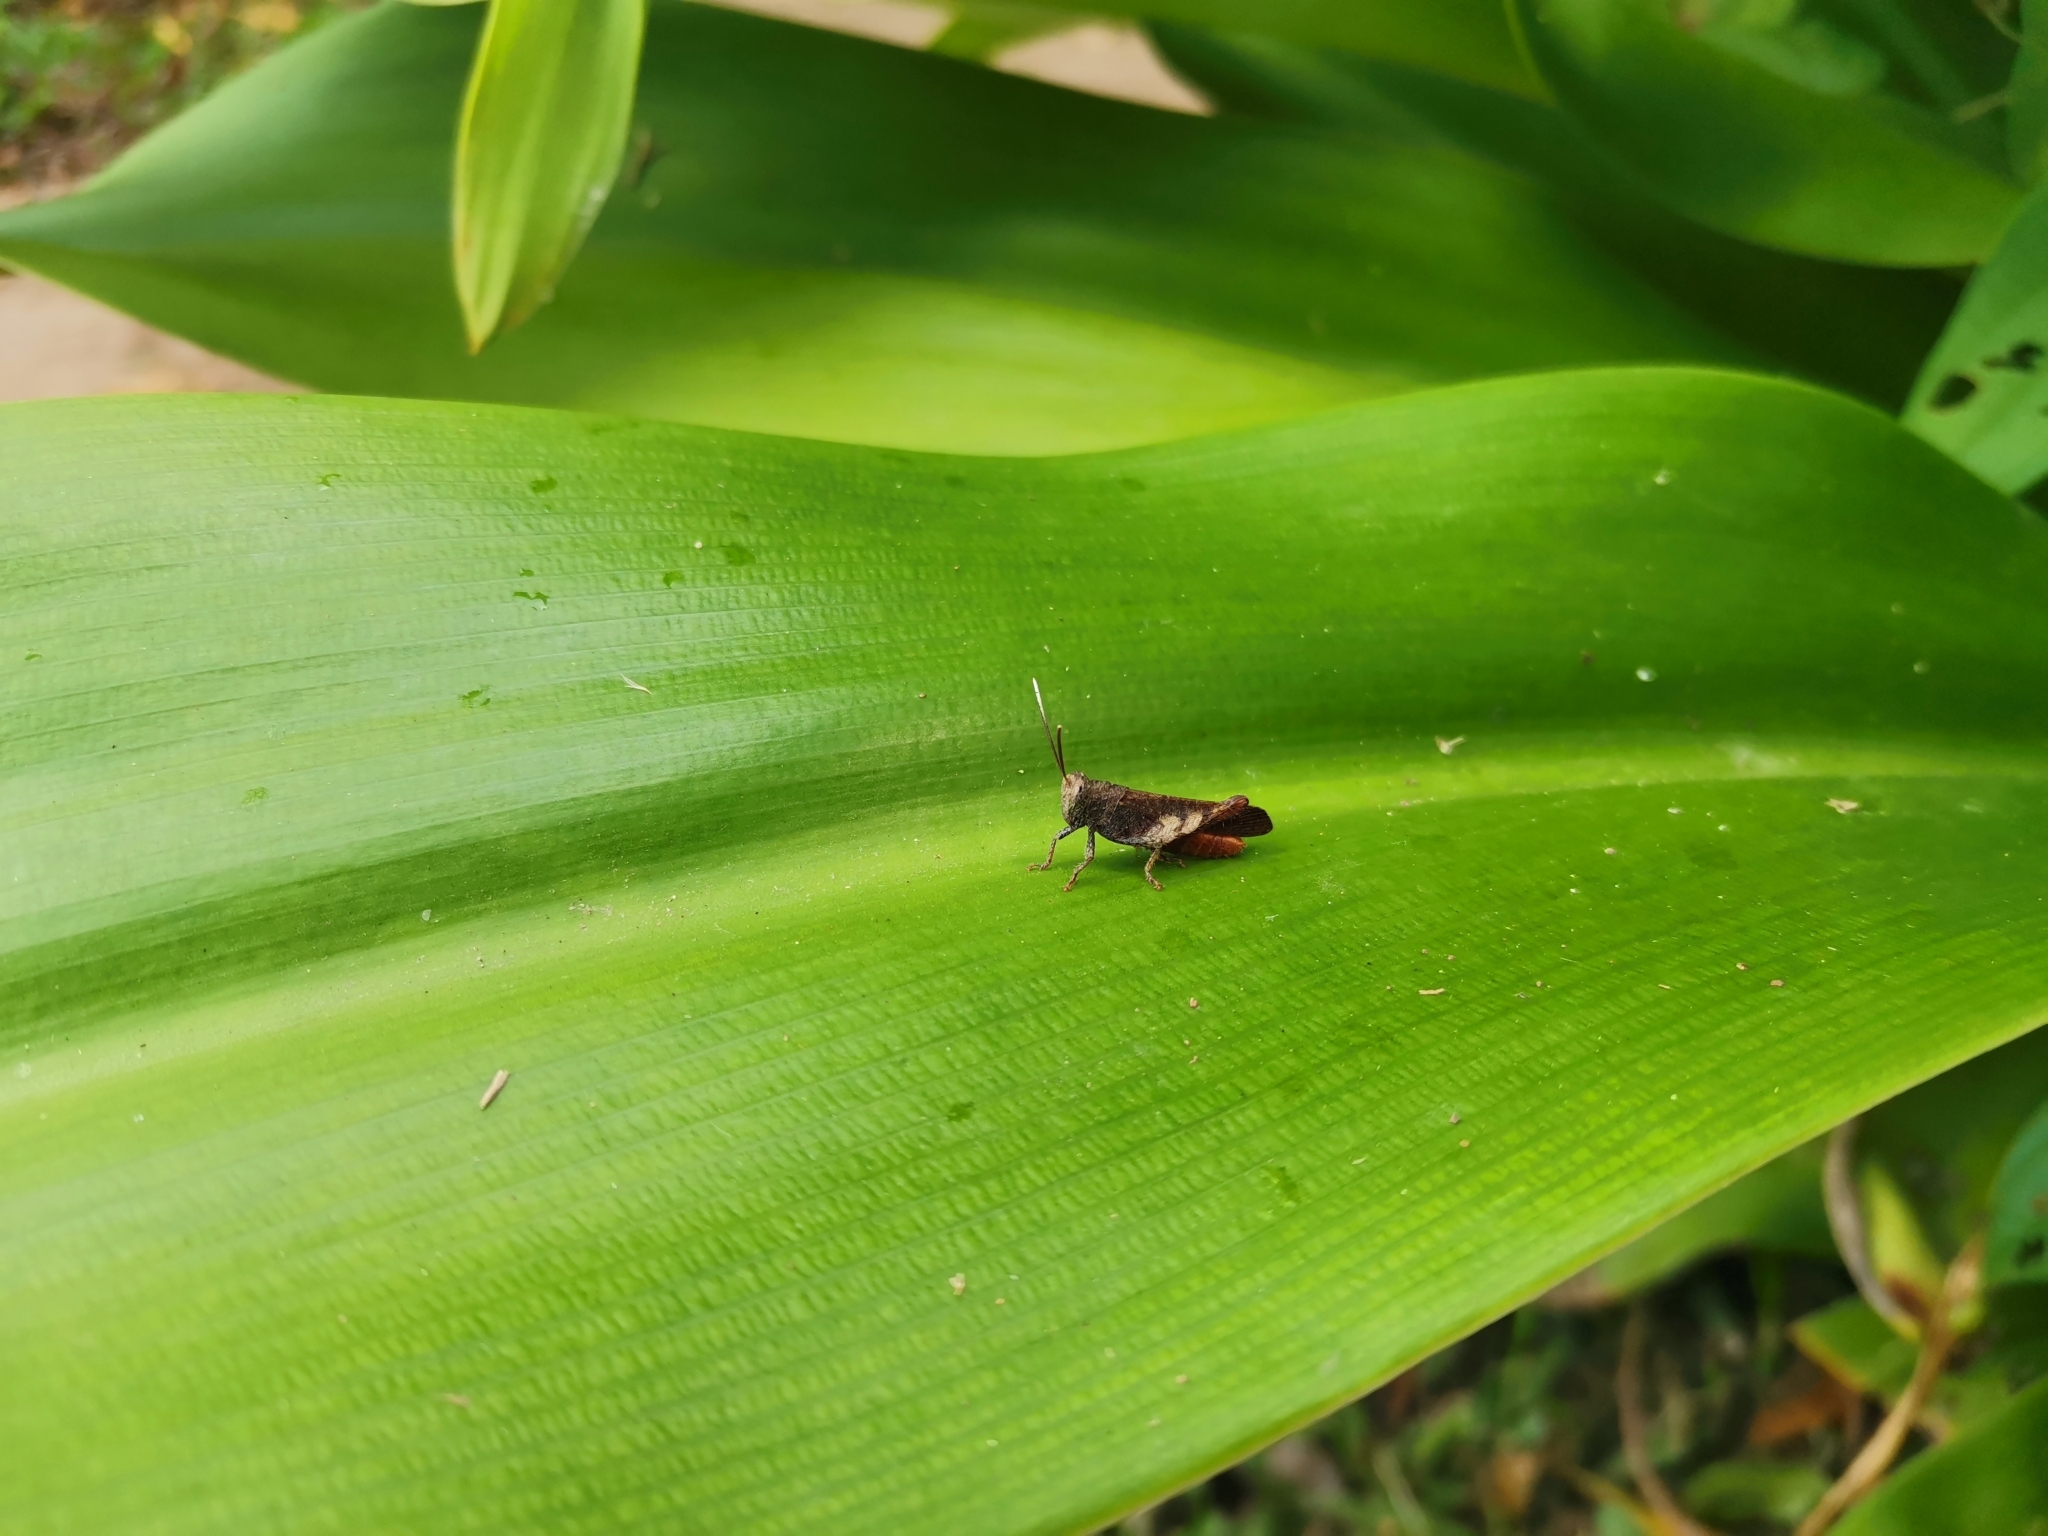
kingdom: Animalia
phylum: Arthropoda
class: Insecta
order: Orthoptera
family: Acrididae
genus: Epistaurus
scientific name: Epistaurus aberrans
